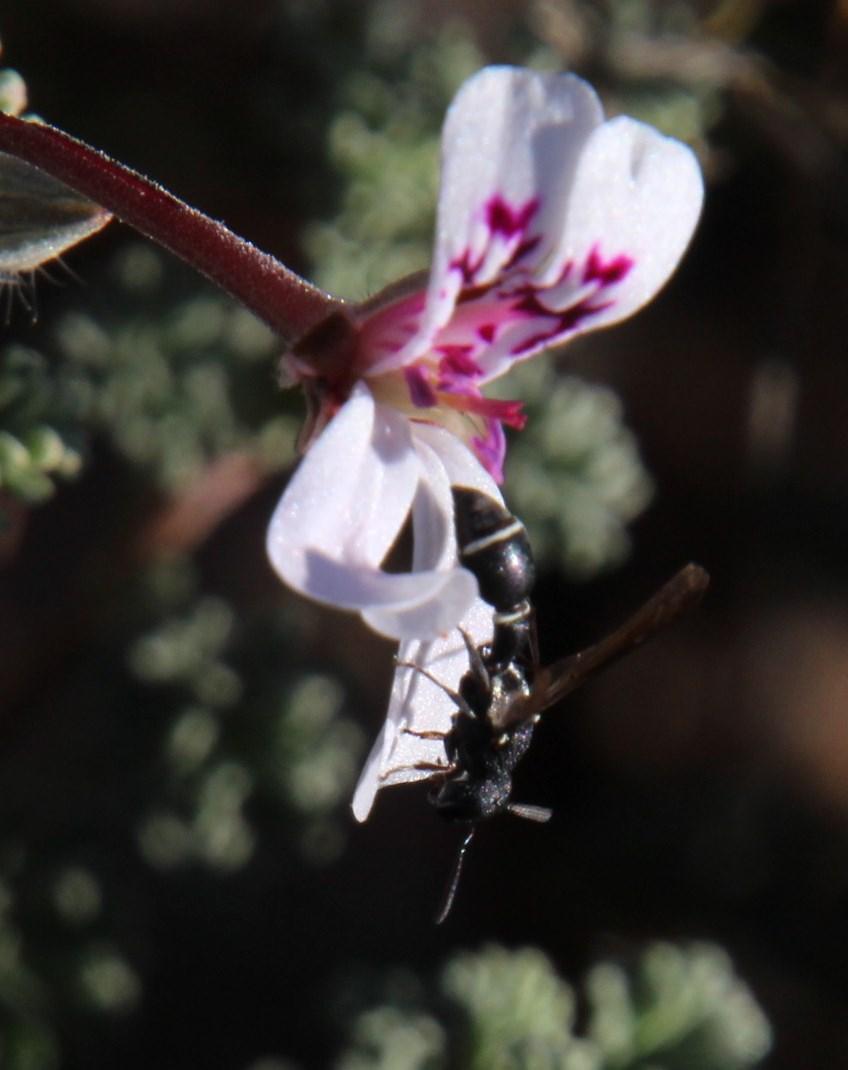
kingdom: Animalia
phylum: Arthropoda
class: Insecta
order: Hymenoptera
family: Eumenidae
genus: Stroudia
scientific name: Stroudia
